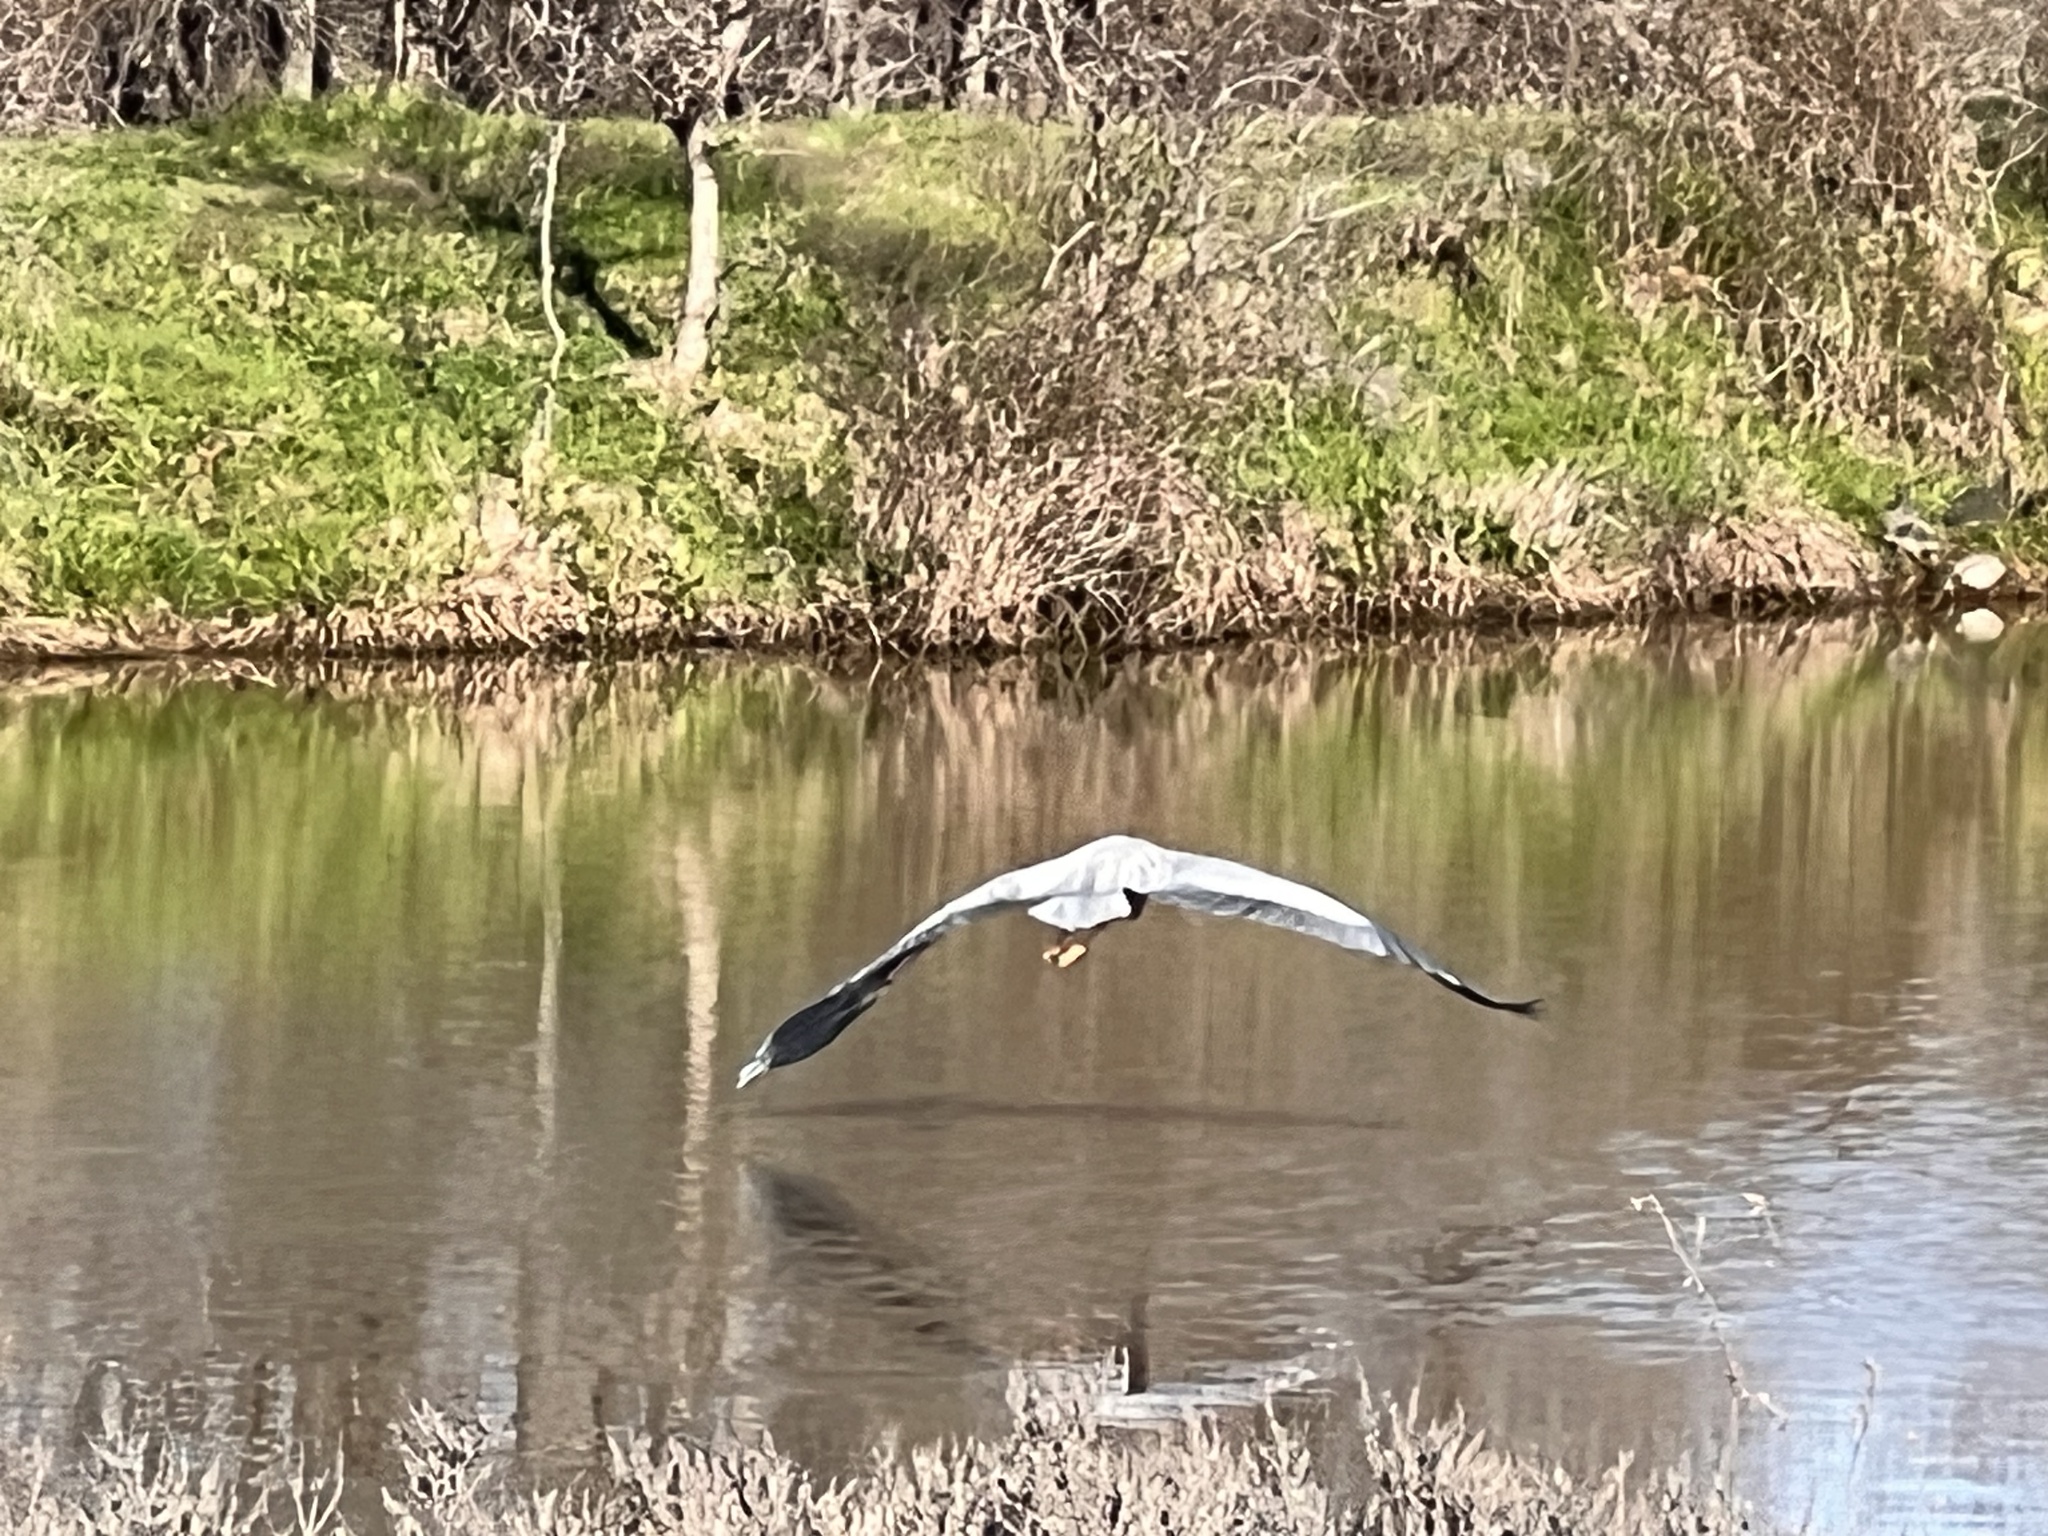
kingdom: Animalia
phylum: Chordata
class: Aves
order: Pelecaniformes
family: Ardeidae
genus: Ardea
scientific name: Ardea herodias
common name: Great blue heron
